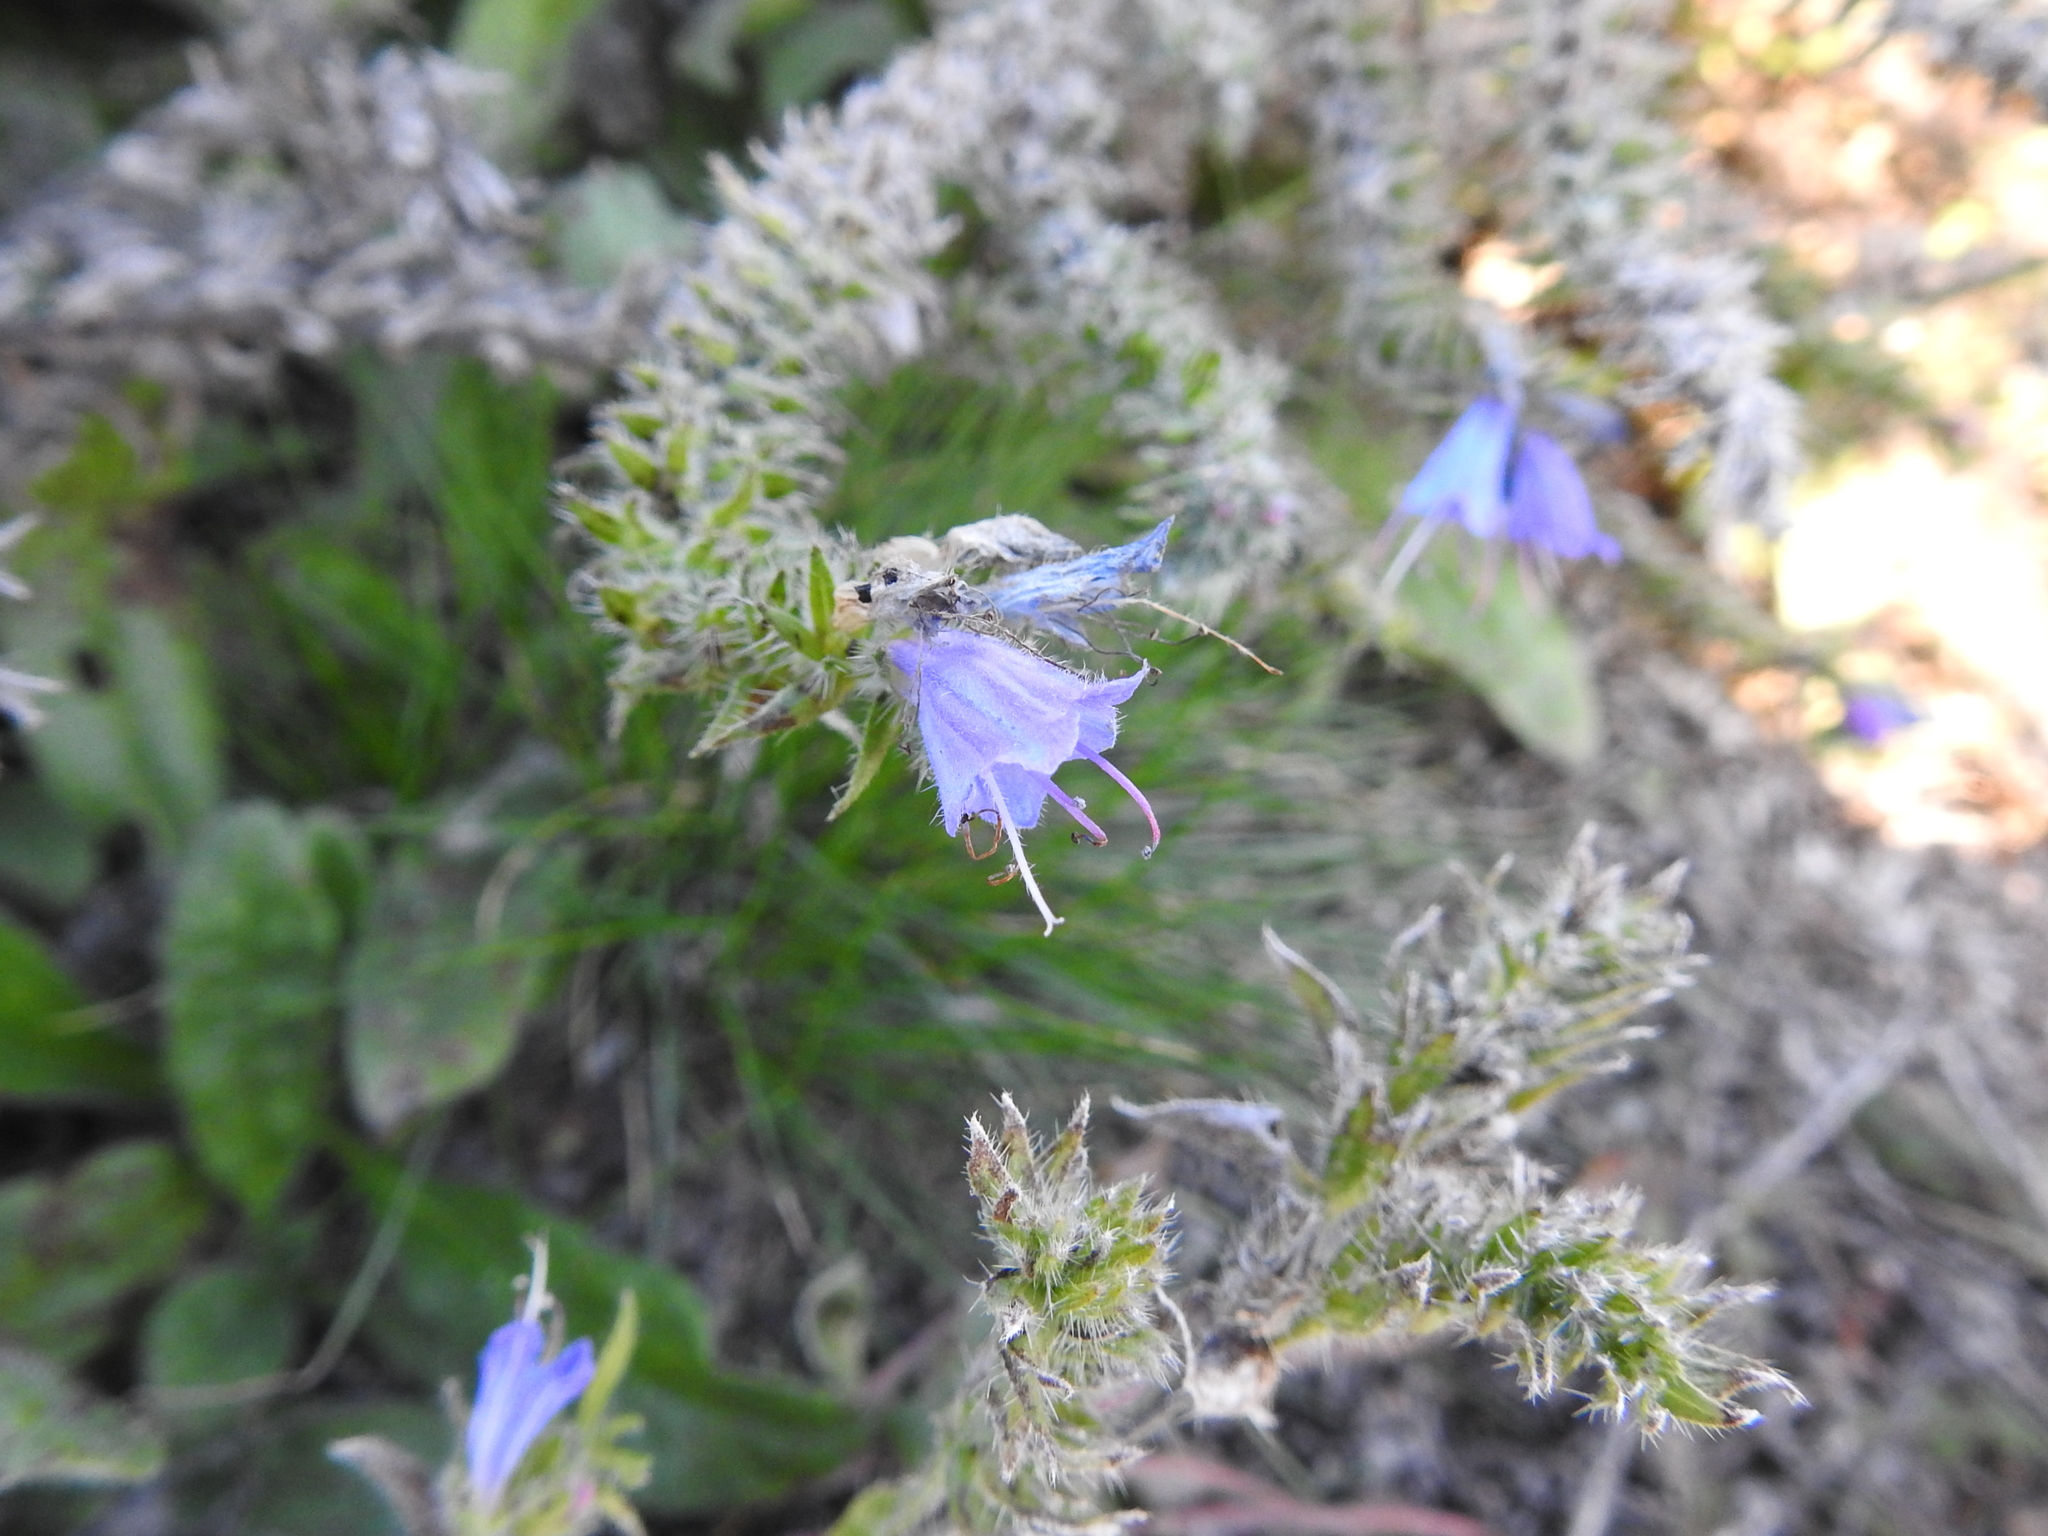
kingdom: Plantae
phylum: Tracheophyta
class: Magnoliopsida
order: Boraginales
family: Boraginaceae
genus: Echium
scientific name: Echium vulgare
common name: Common viper's bugloss
